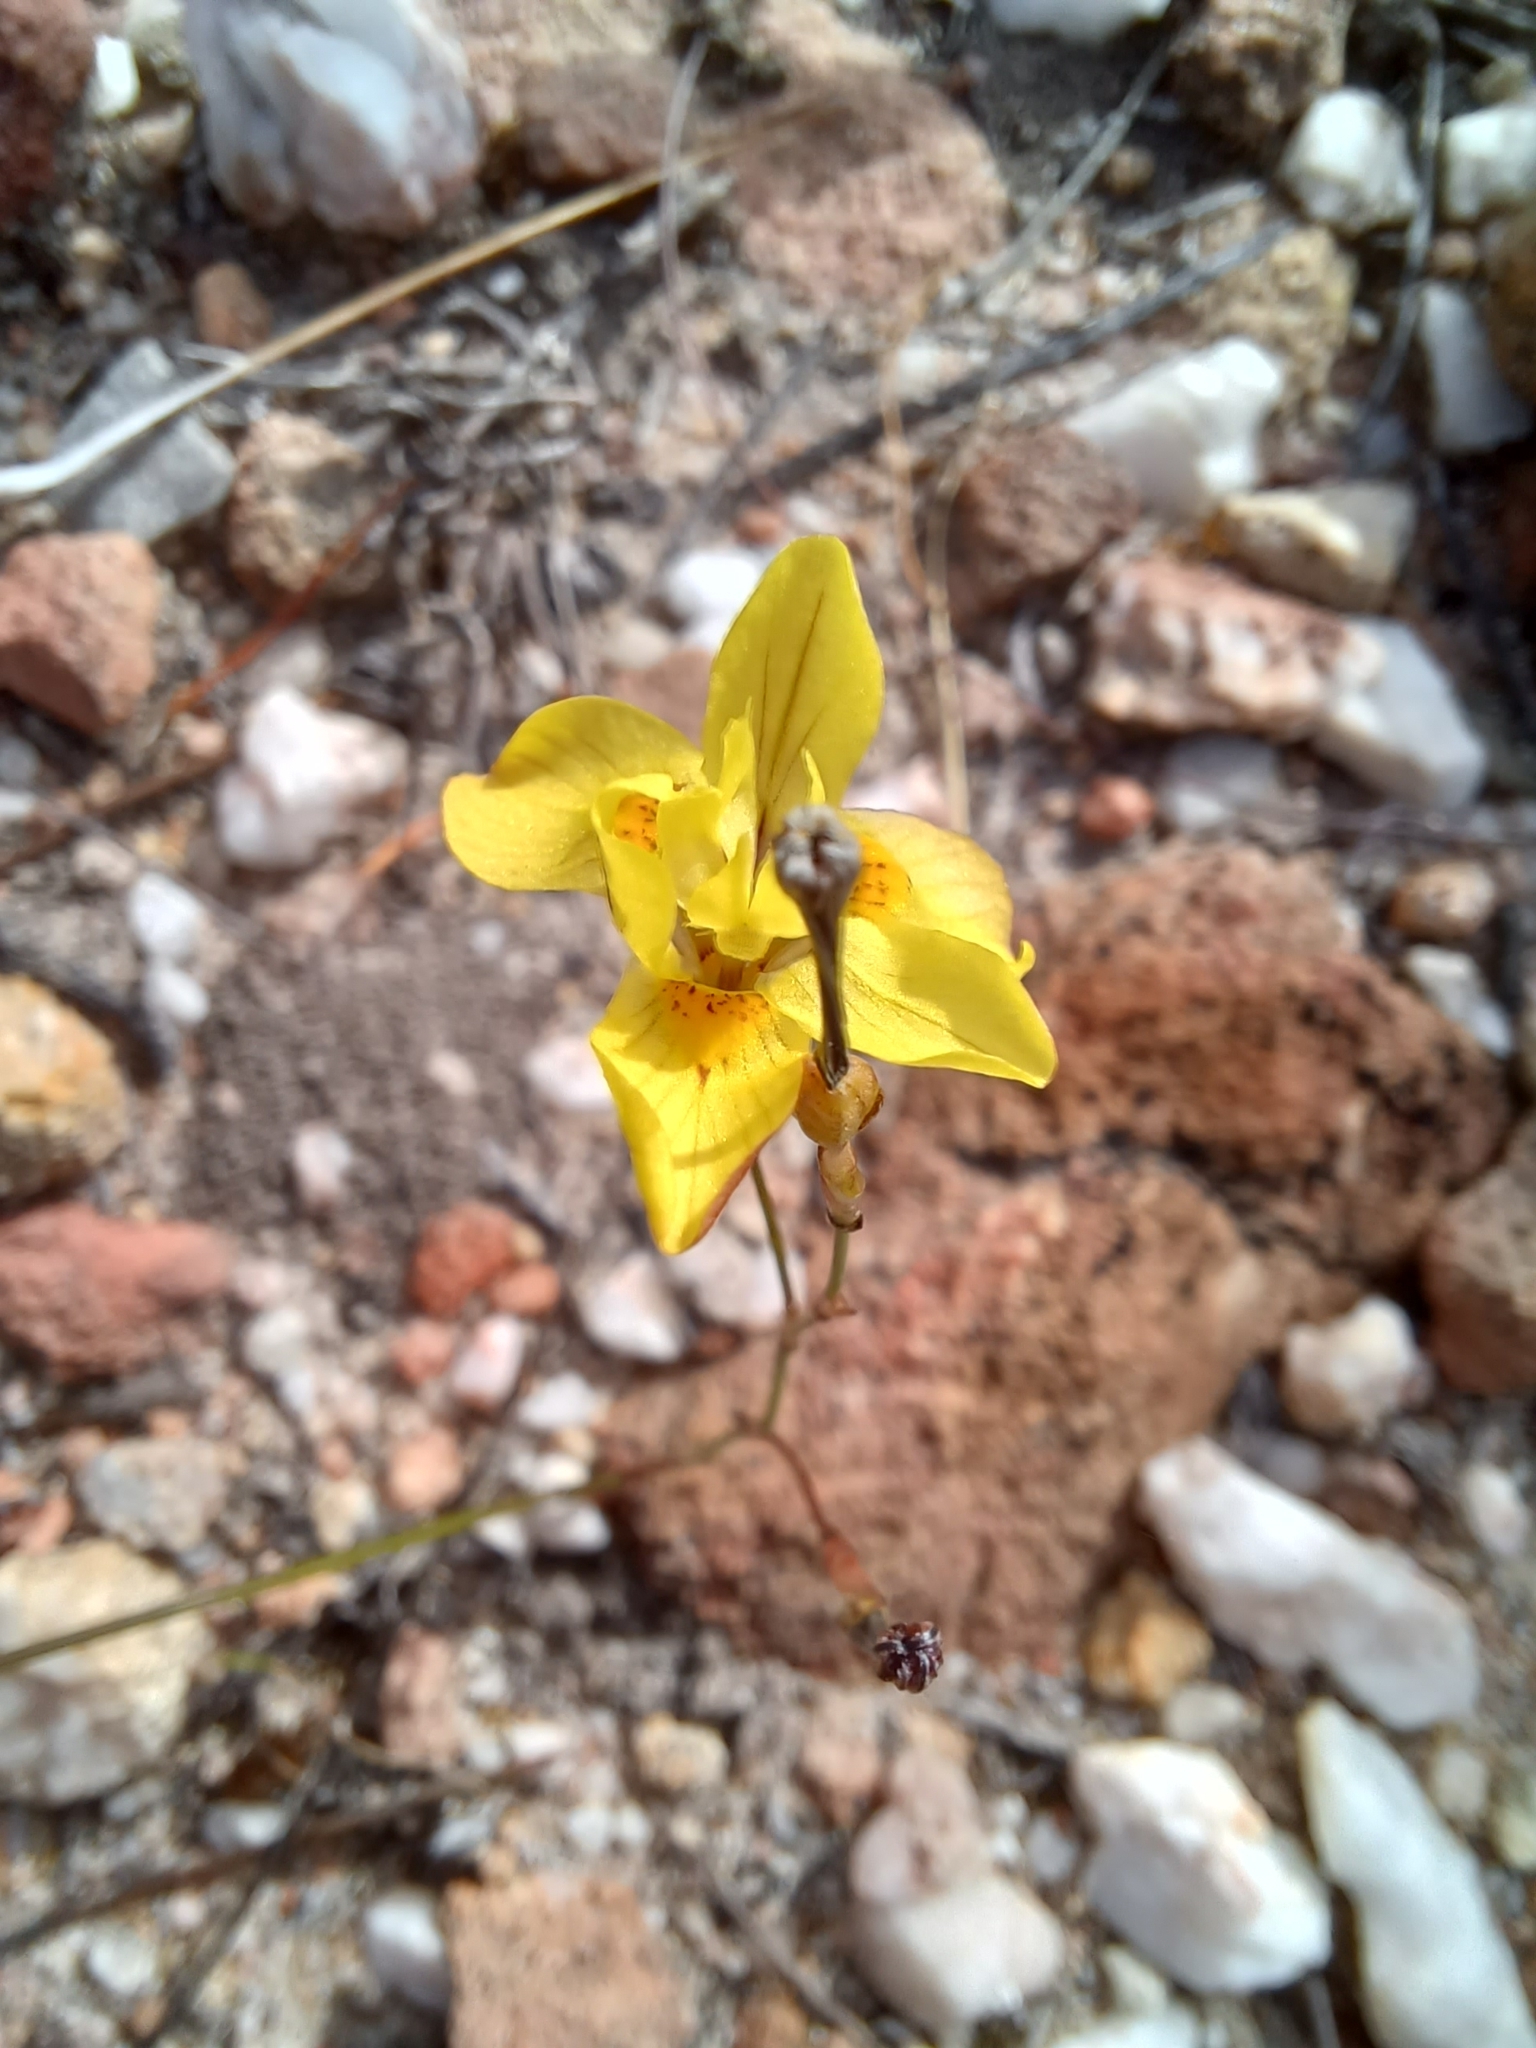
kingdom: Plantae
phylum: Tracheophyta
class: Liliopsida
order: Asparagales
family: Iridaceae
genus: Moraea
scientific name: Moraea gawleri
